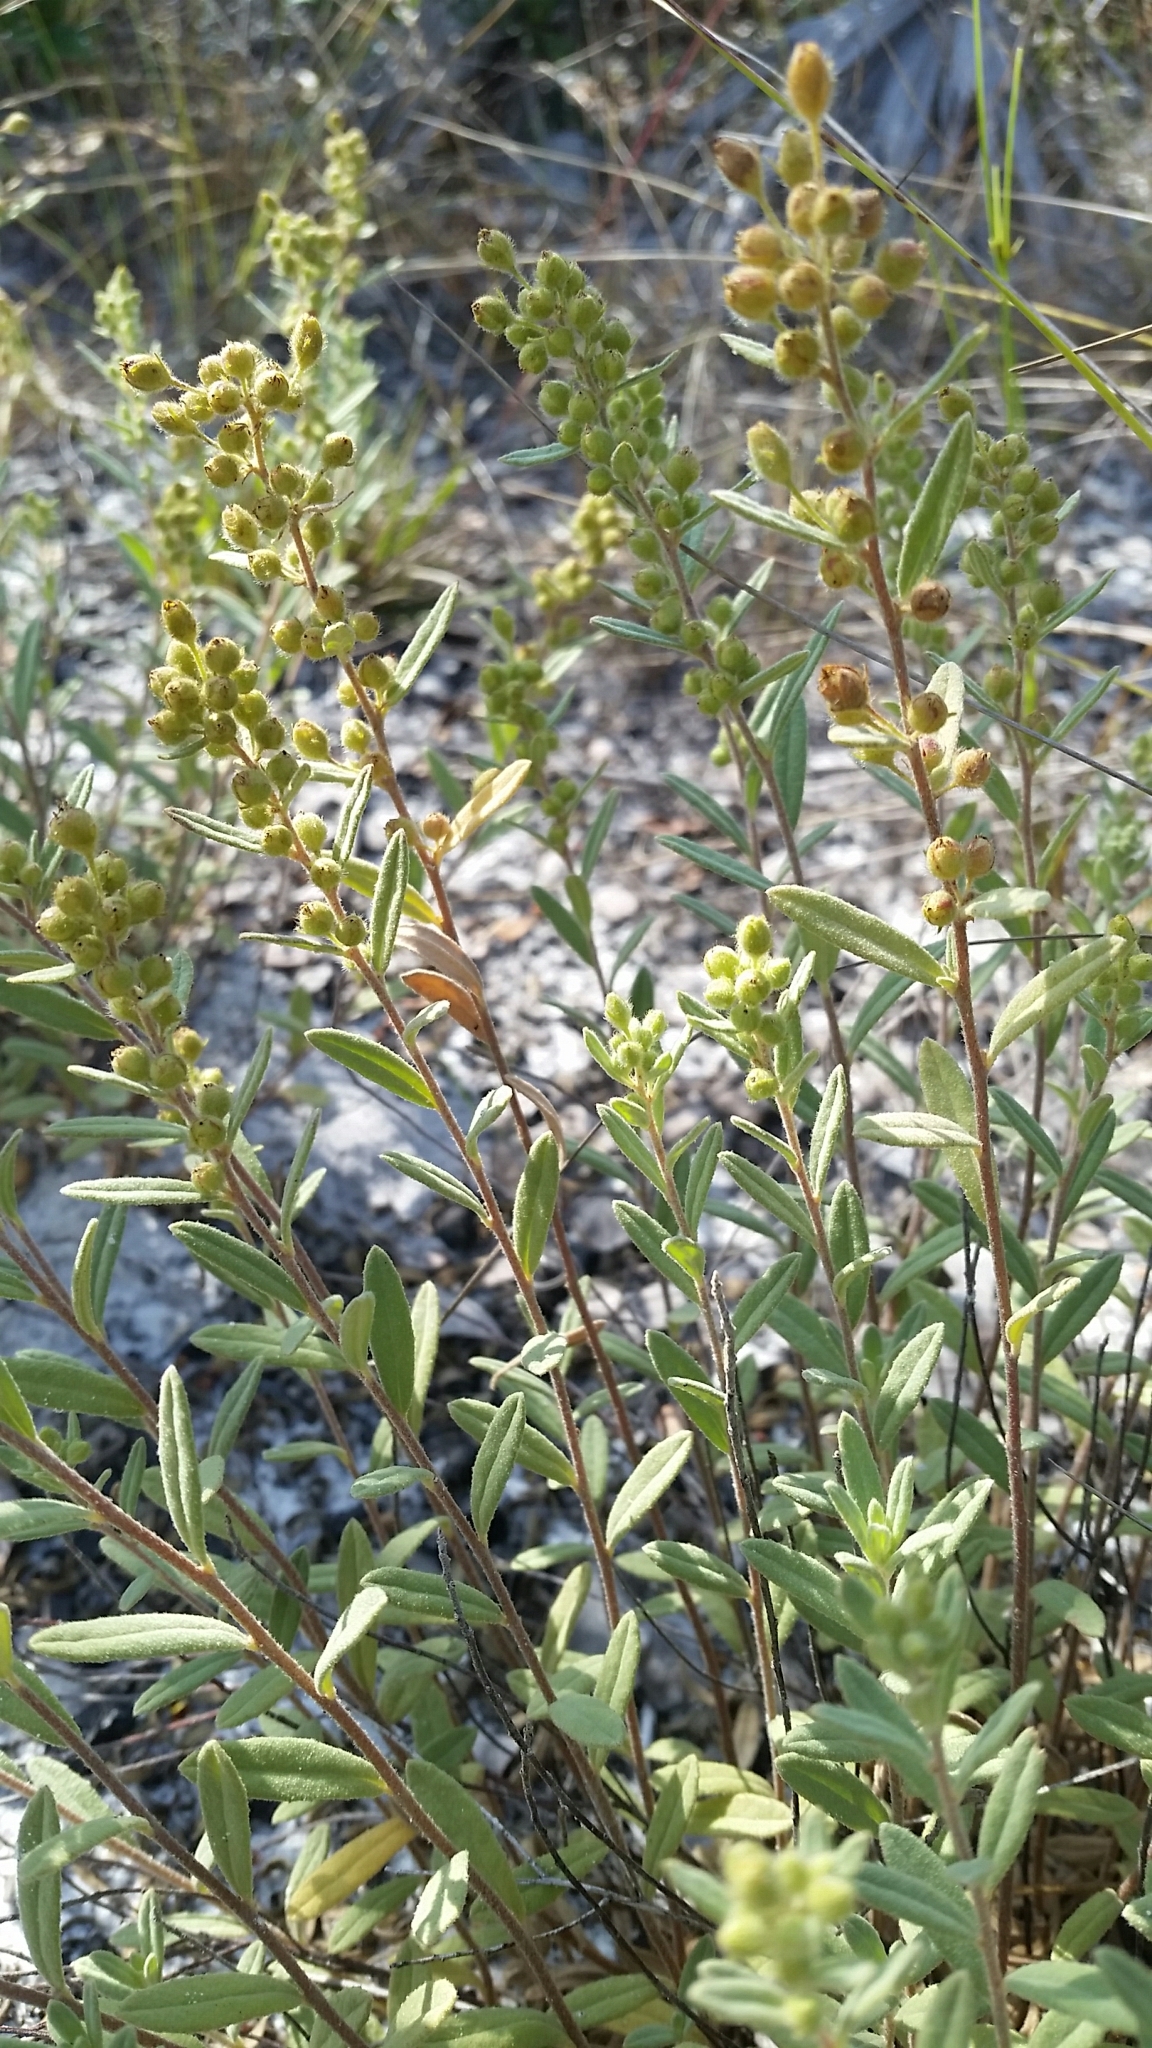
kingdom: Plantae
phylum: Tracheophyta
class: Magnoliopsida
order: Malvales
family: Cistaceae
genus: Crocanthemum
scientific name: Crocanthemum nashii
